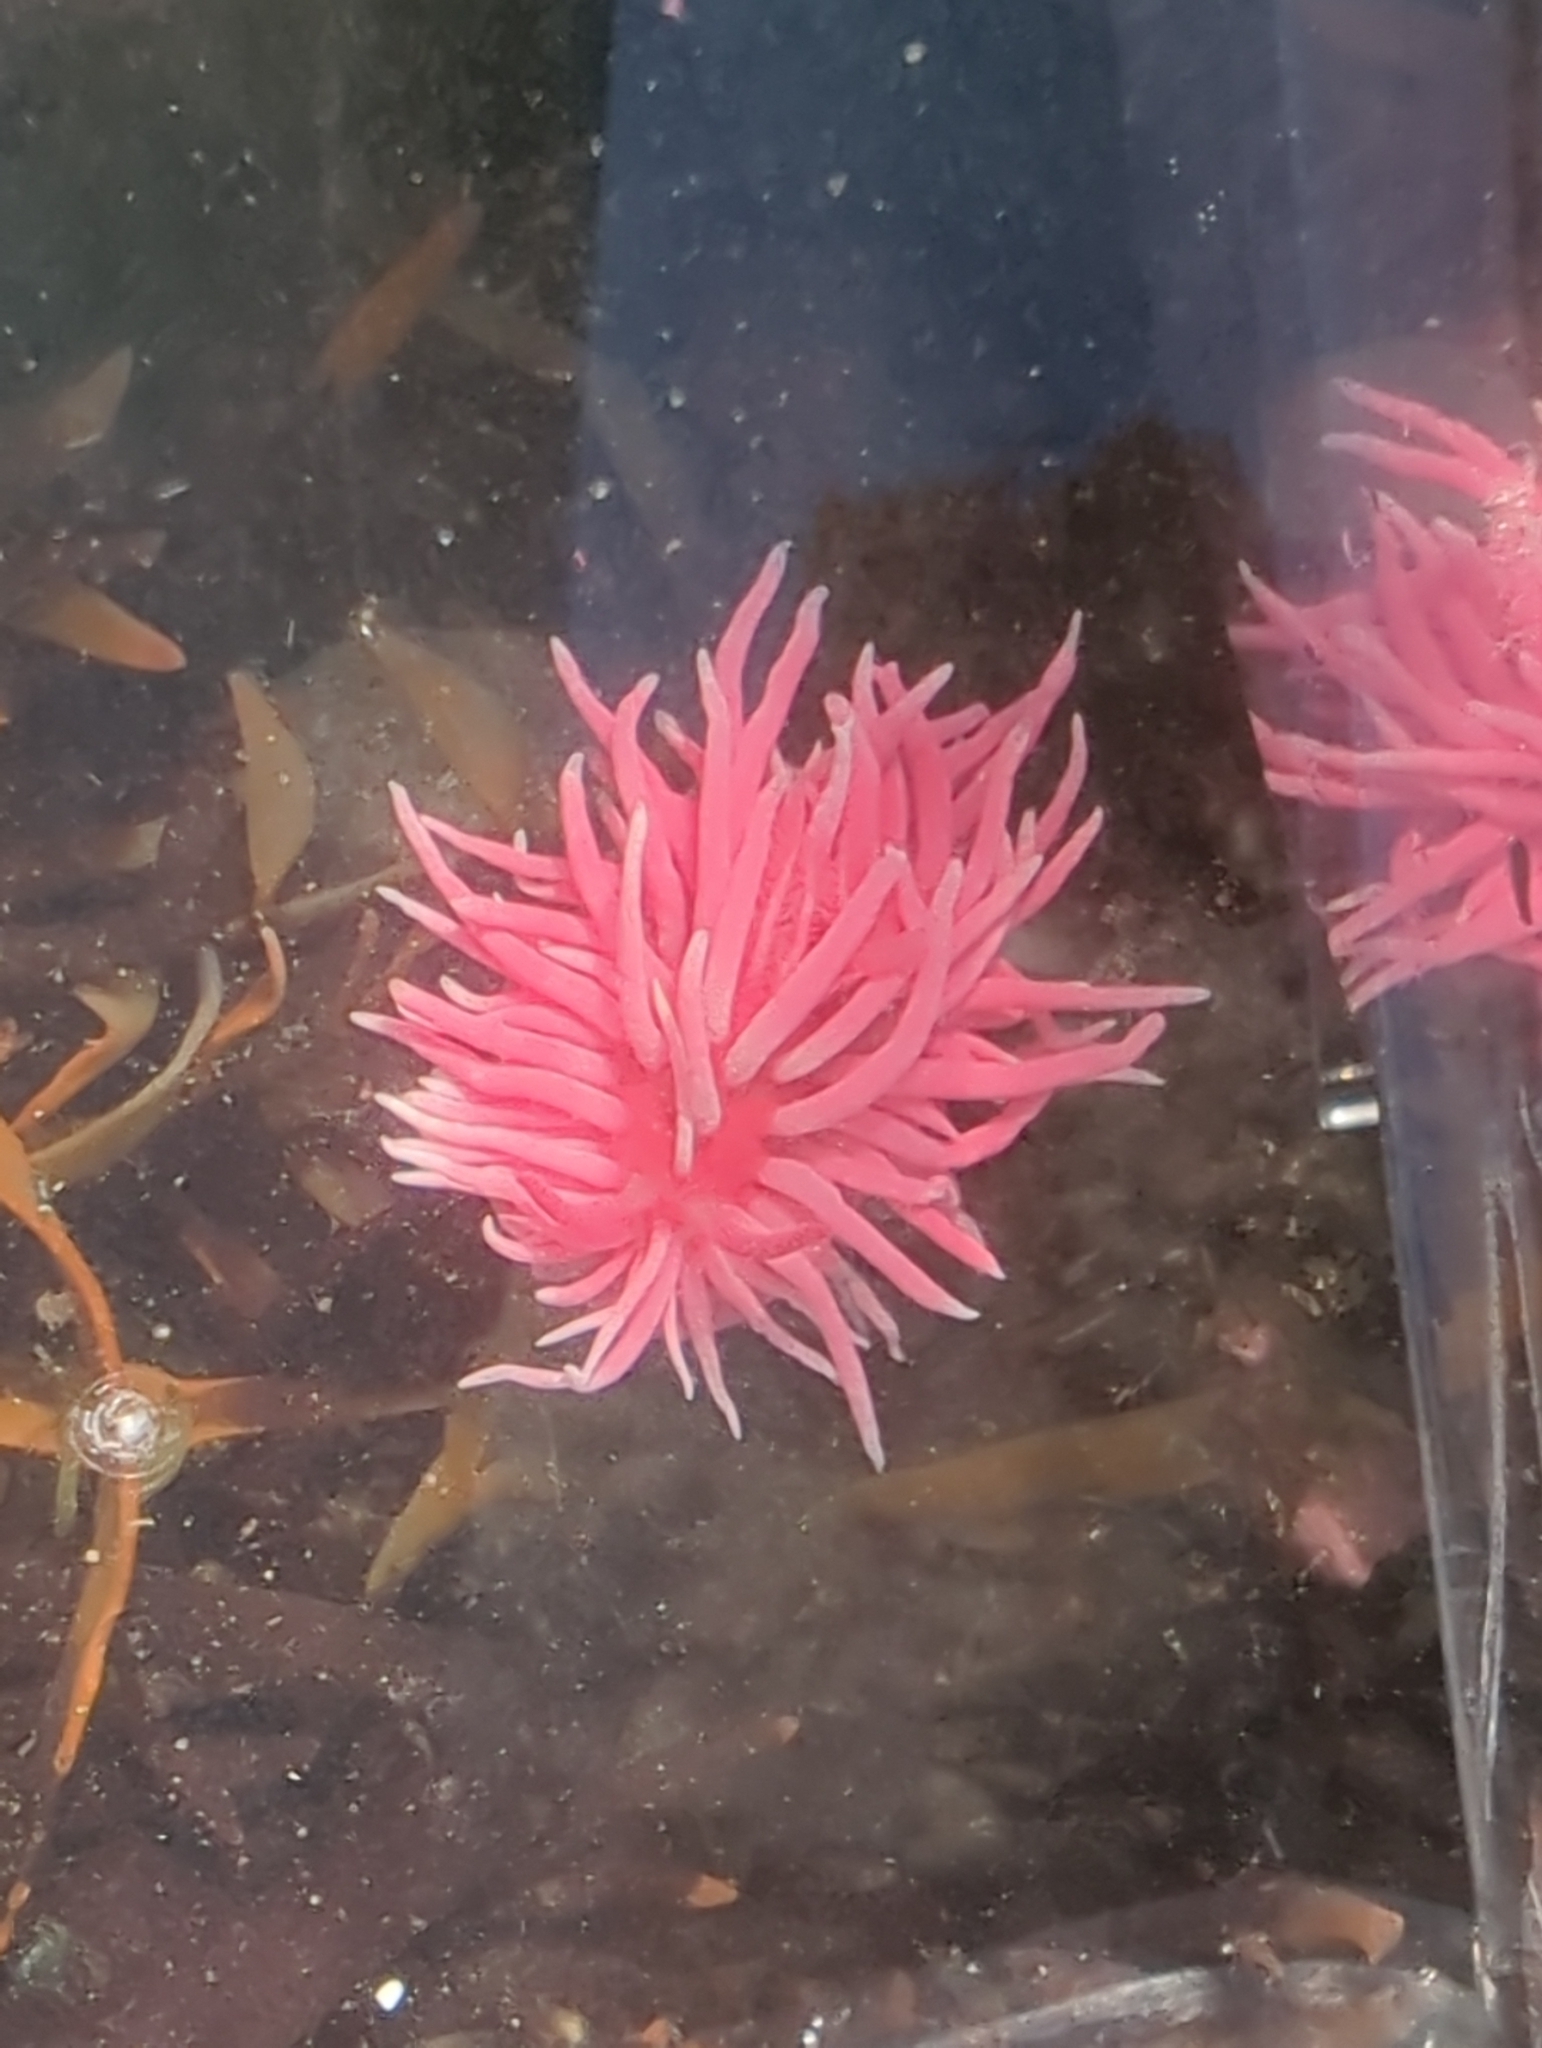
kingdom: Animalia
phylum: Mollusca
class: Gastropoda
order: Nudibranchia
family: Goniodorididae
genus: Okenia
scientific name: Okenia
